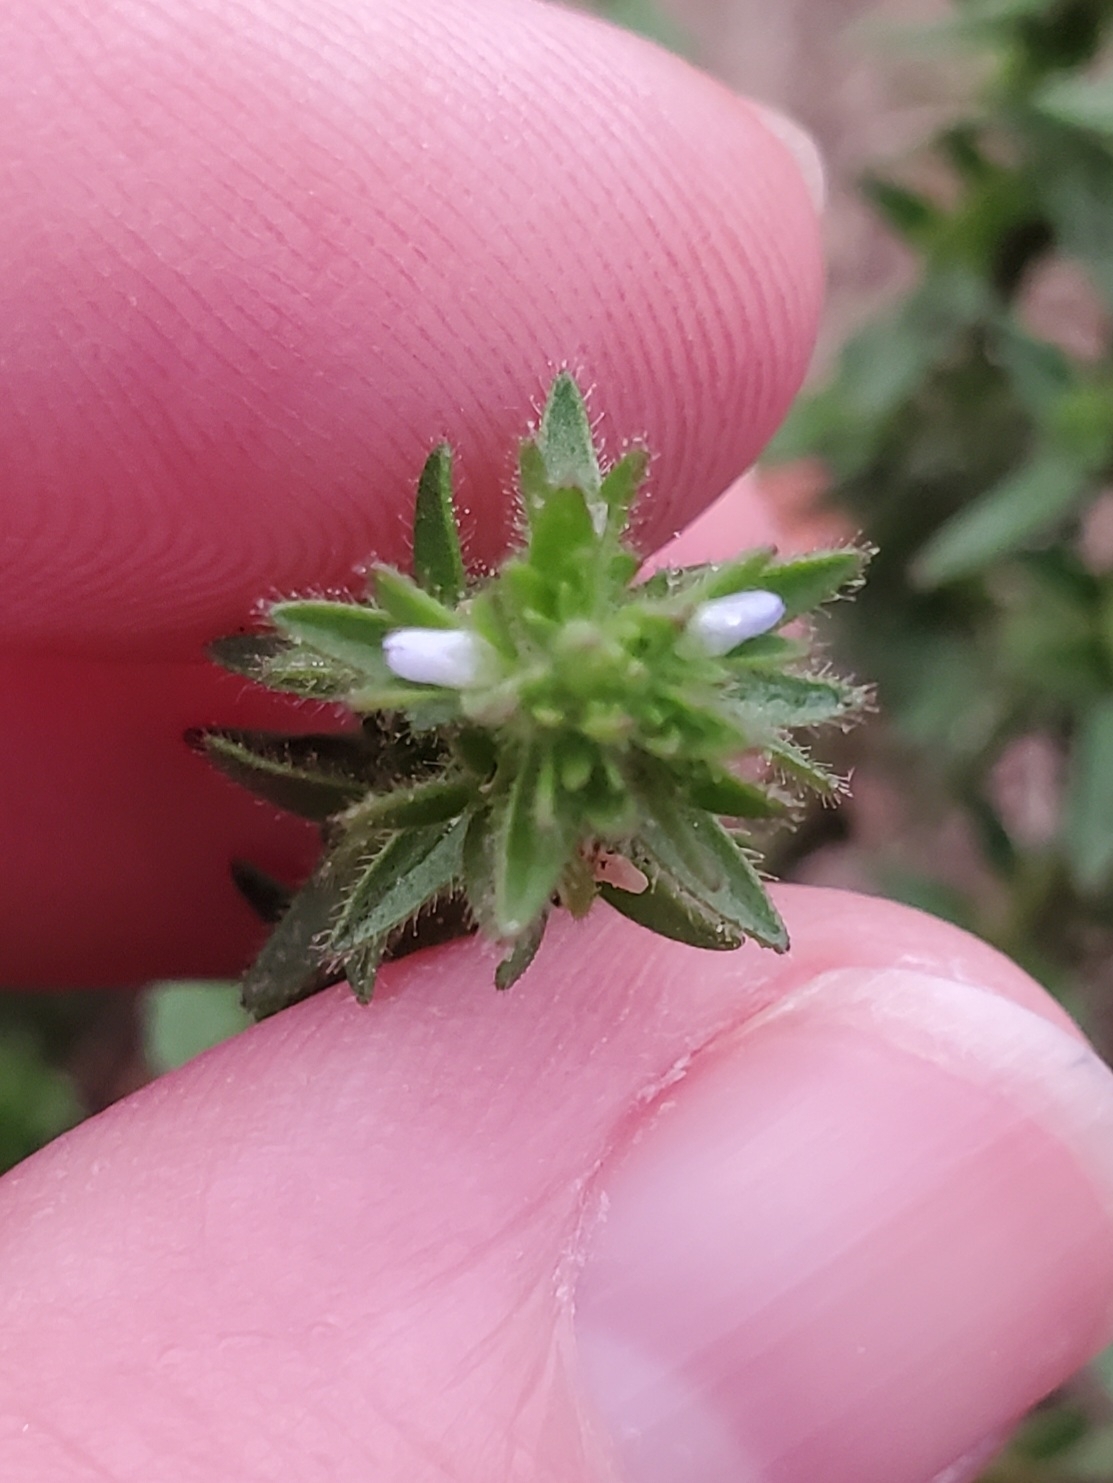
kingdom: Plantae
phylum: Tracheophyta
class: Magnoliopsida
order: Lamiales
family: Plantaginaceae
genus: Veronica
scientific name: Veronica arvensis
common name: Corn speedwell
